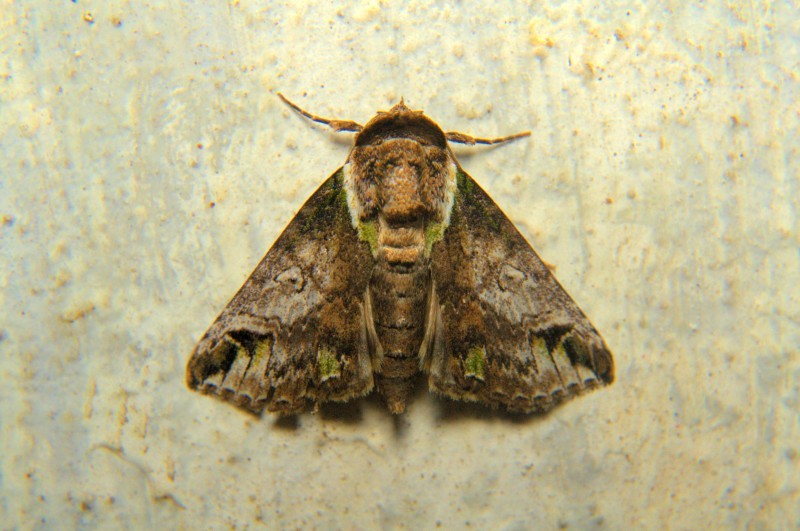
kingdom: Animalia
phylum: Arthropoda
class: Insecta
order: Lepidoptera
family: Nolidae
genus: Risoba
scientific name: Risoba obstructa
